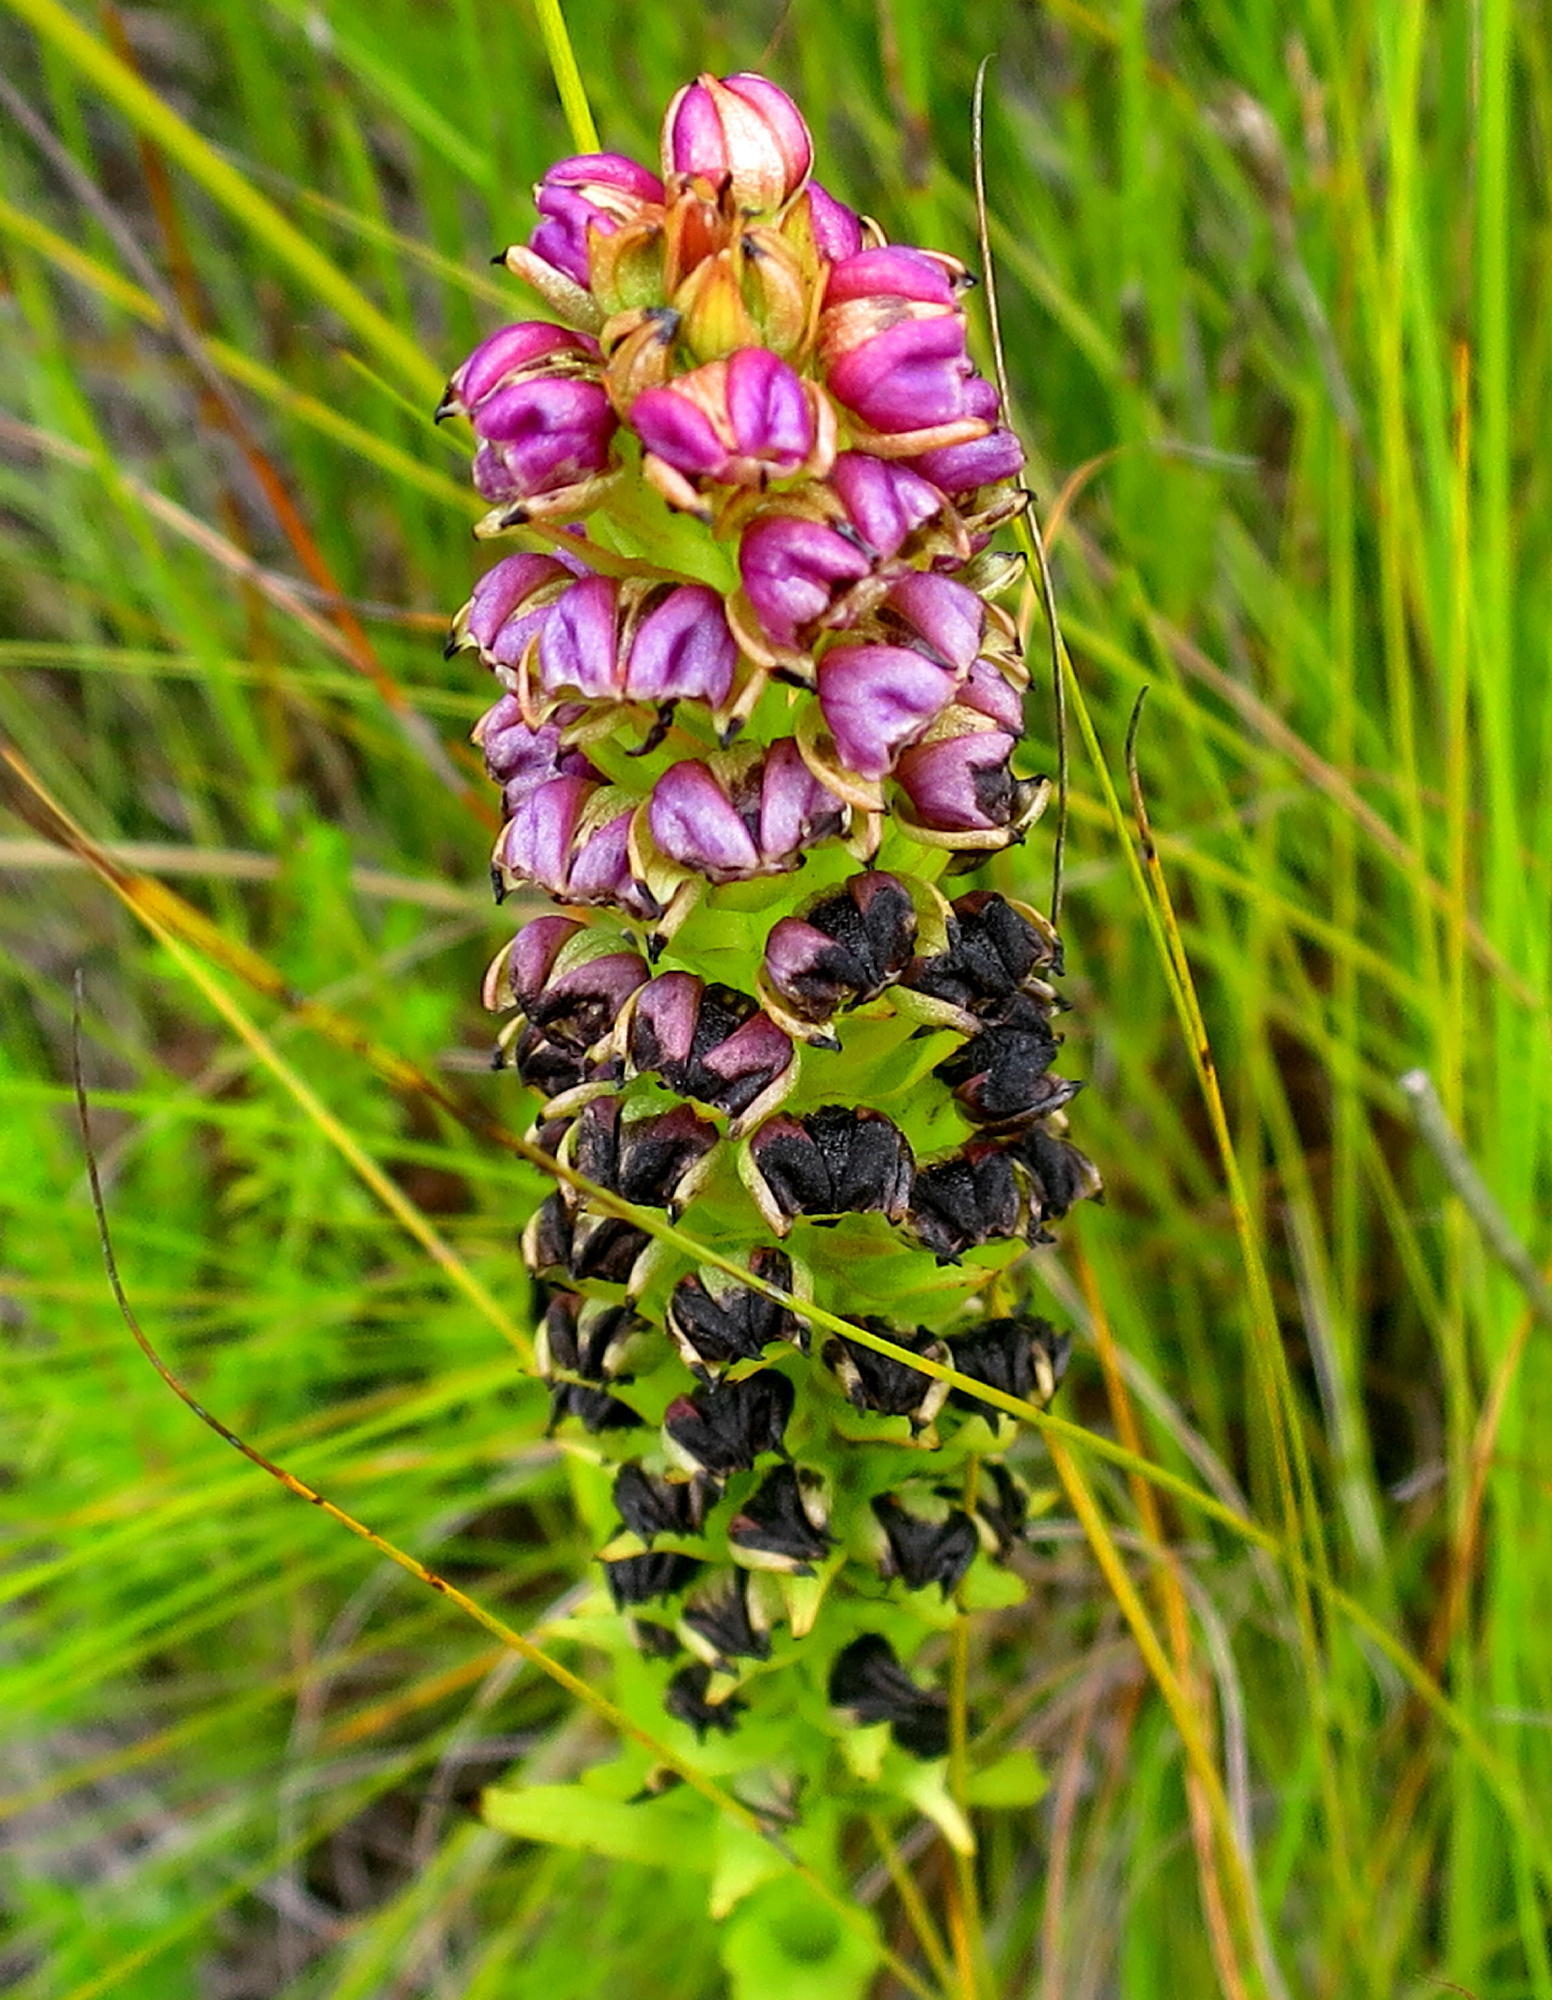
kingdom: Plantae
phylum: Tracheophyta
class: Liliopsida
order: Asparagales
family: Orchidaceae
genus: Evotella
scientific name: Evotella carnosa
